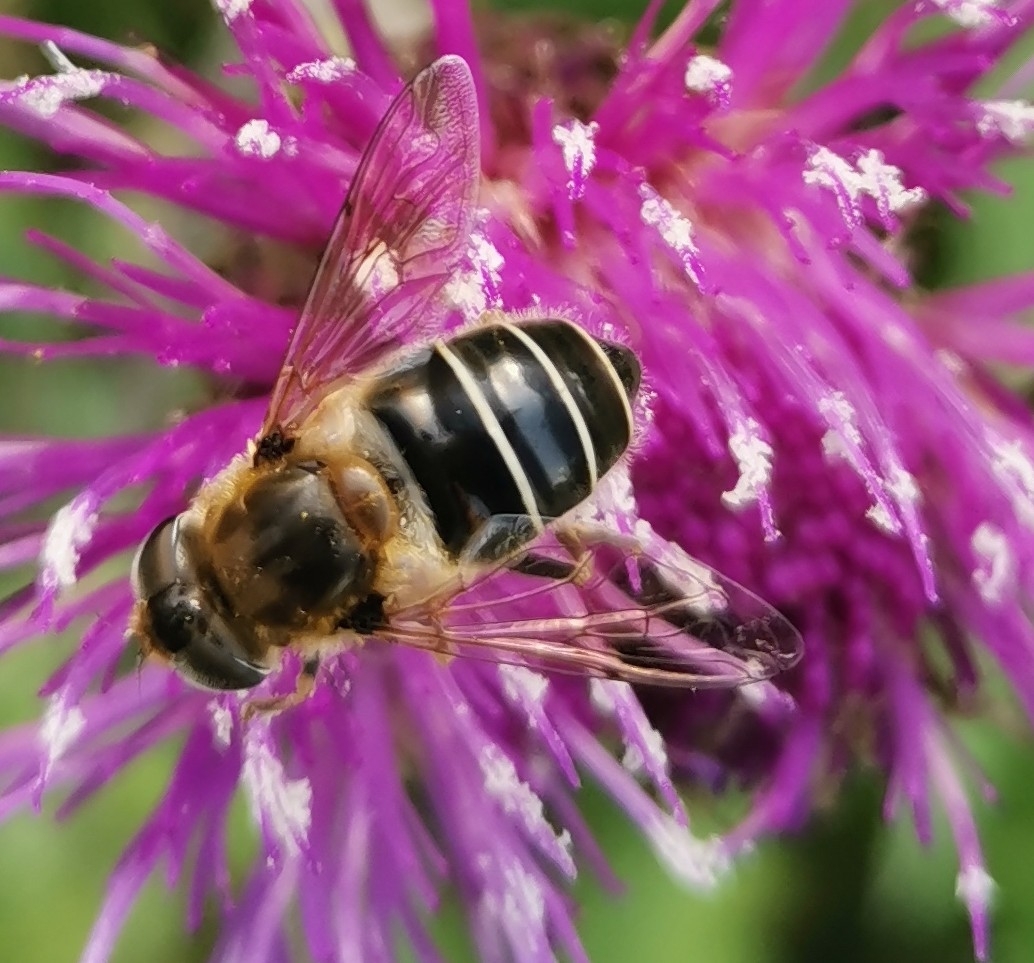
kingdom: Animalia
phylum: Arthropoda
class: Insecta
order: Diptera
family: Syrphidae
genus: Eristalis
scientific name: Eristalis nemorum
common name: Orange-spined drone fly
